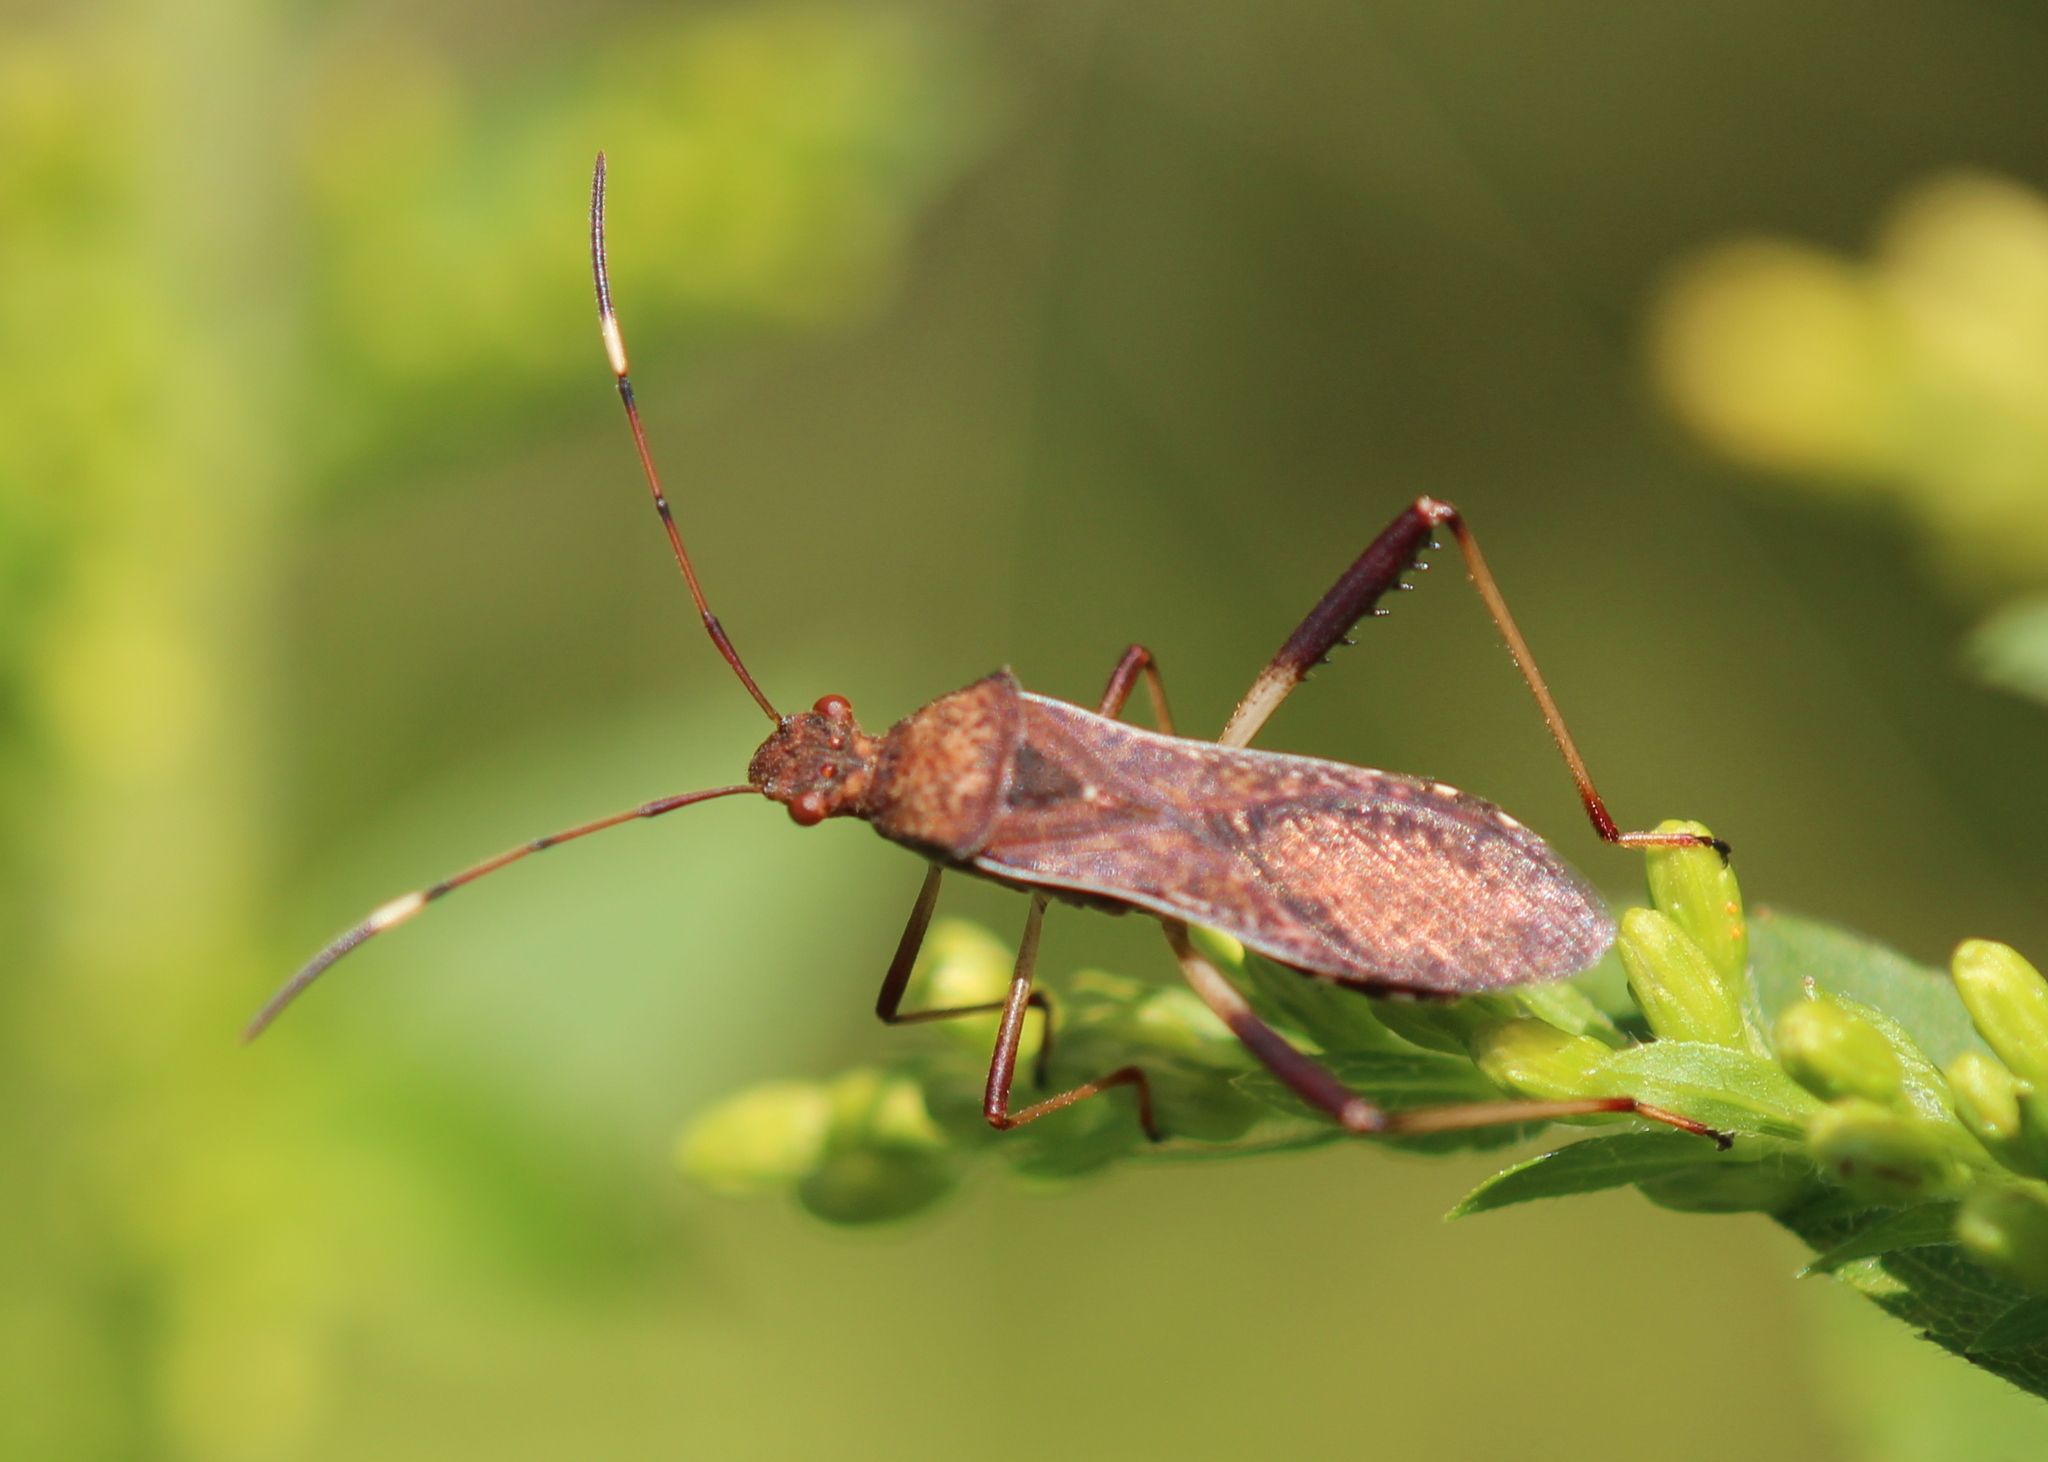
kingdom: Animalia
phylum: Arthropoda
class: Insecta
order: Hemiptera
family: Alydidae
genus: Megalotomus
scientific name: Megalotomus quinquespinosus
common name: Lupine bug
